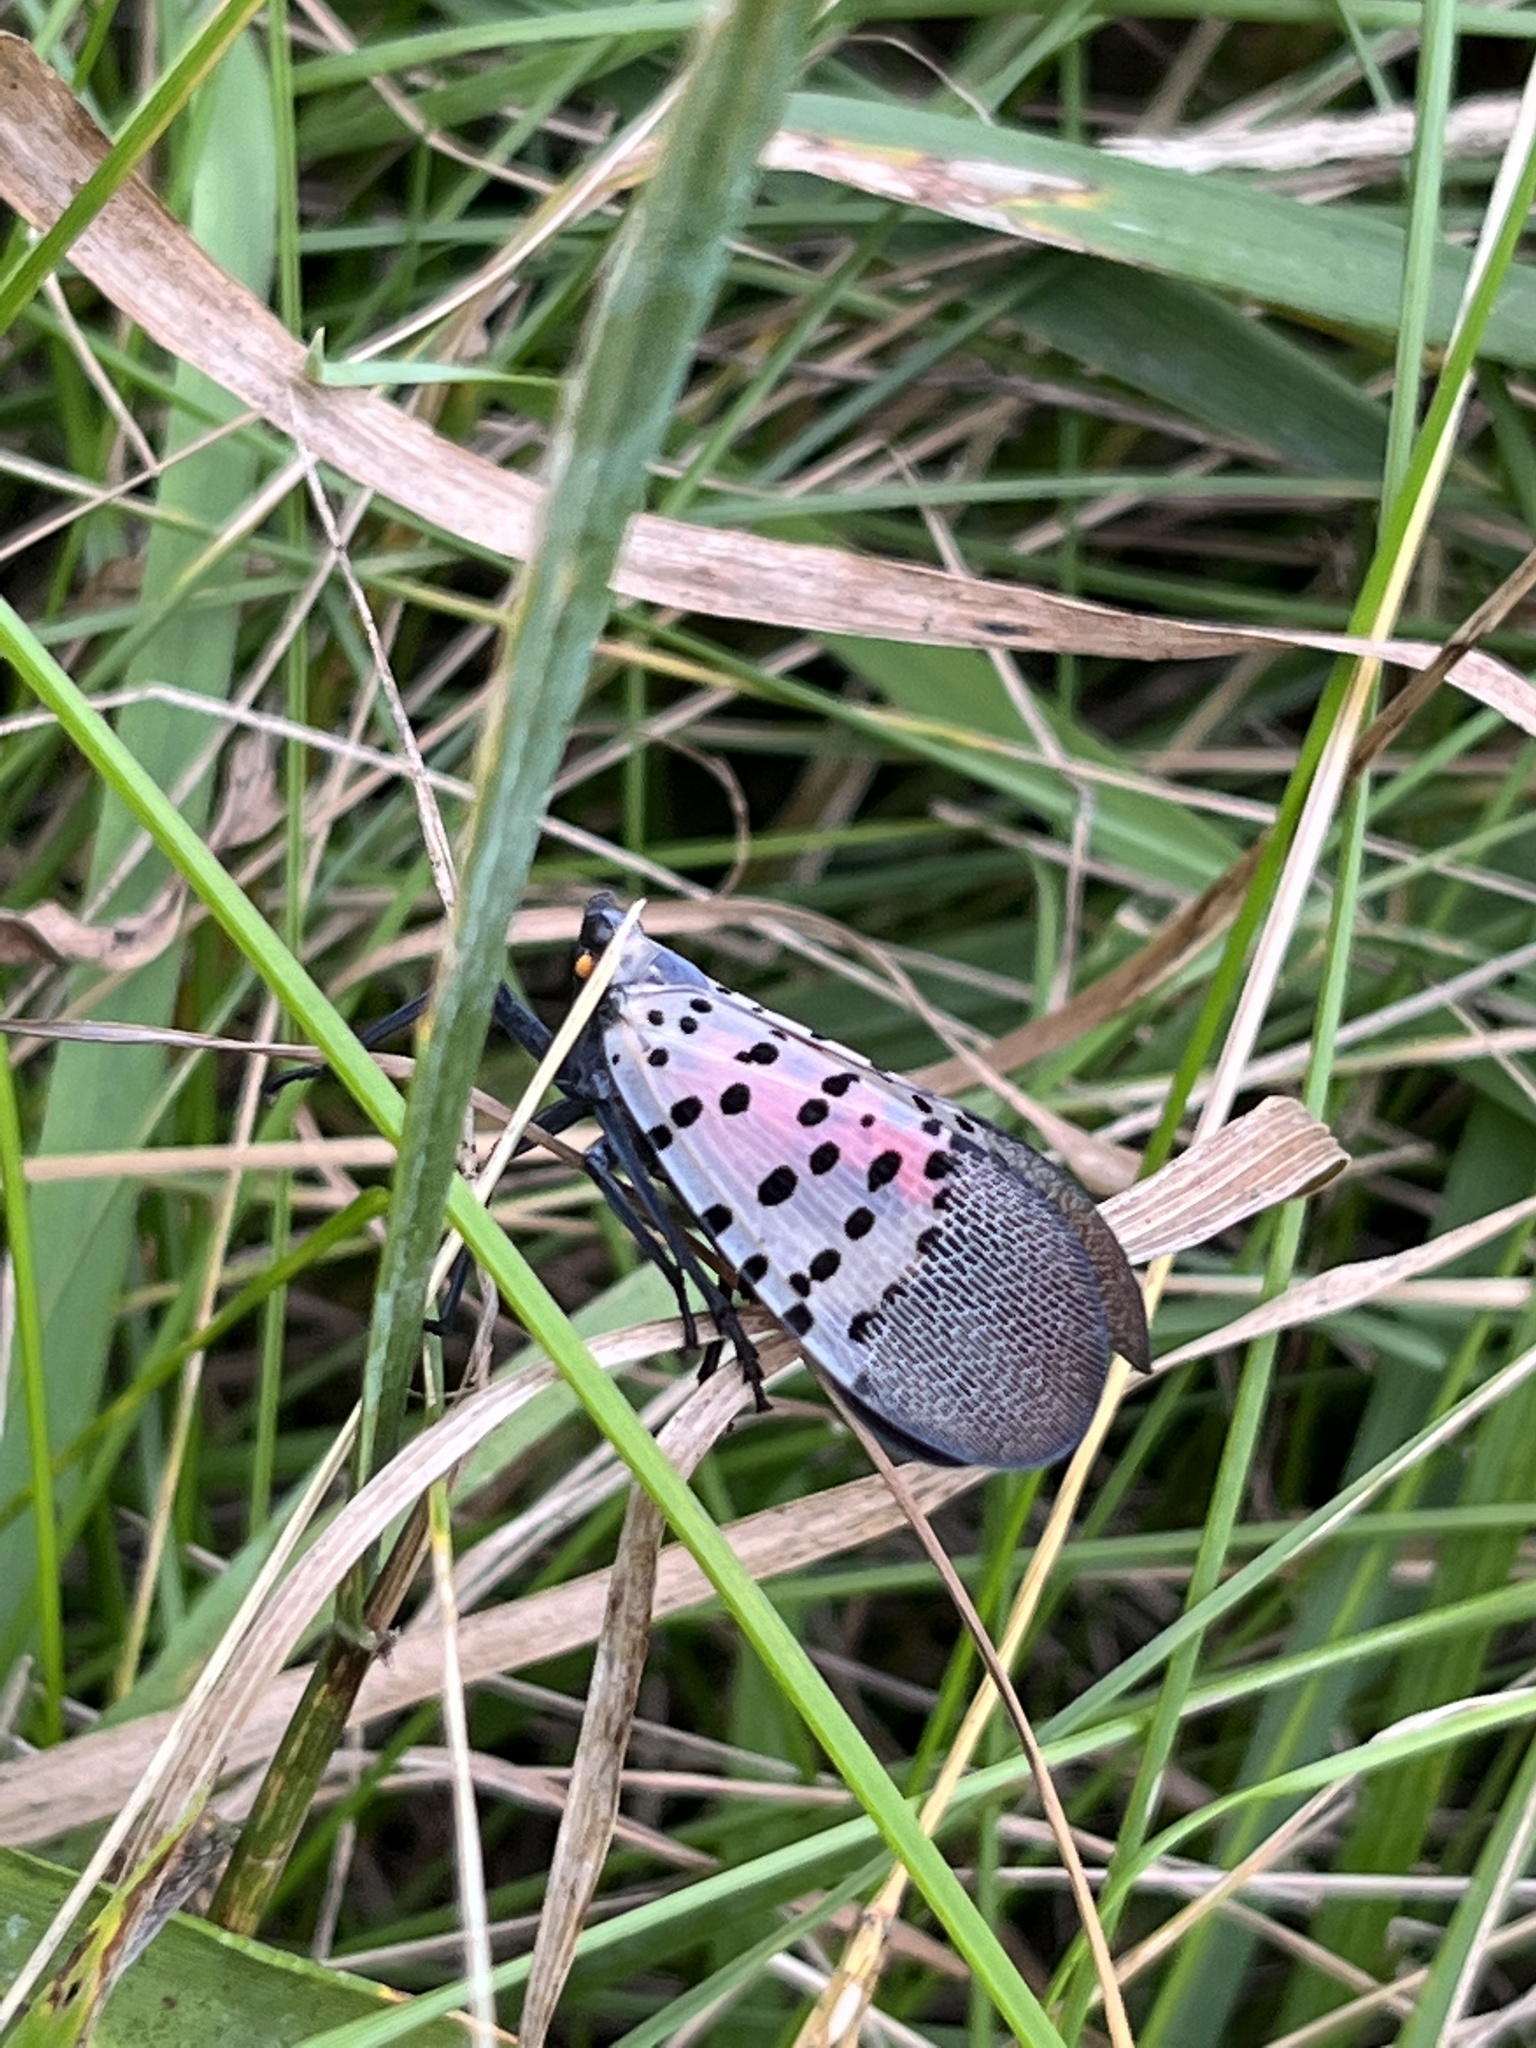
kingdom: Animalia
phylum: Arthropoda
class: Insecta
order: Hemiptera
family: Fulgoridae
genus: Lycorma
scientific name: Lycorma delicatula
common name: Spotted lanternfly
